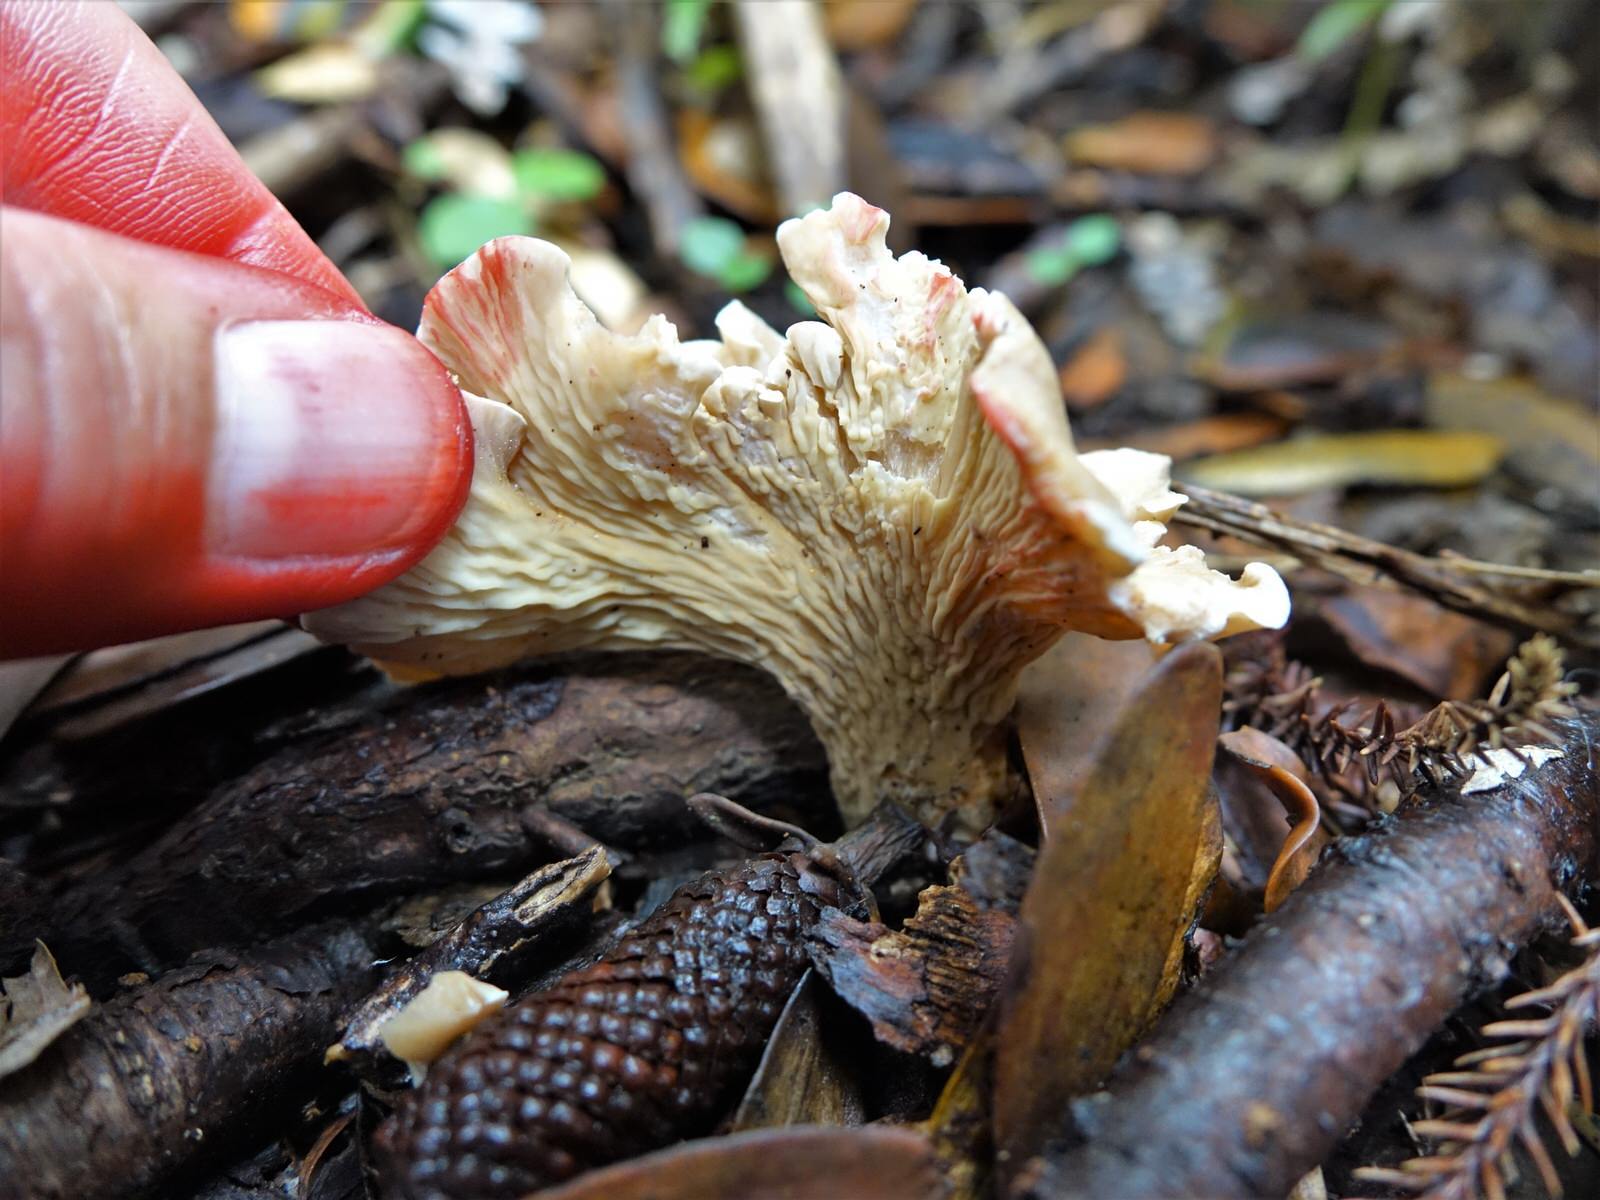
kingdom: Fungi
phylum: Basidiomycota
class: Agaricomycetes
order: Amylocorticiales
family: Amylocorticiaceae
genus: Podoserpula
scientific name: Podoserpula pusio
